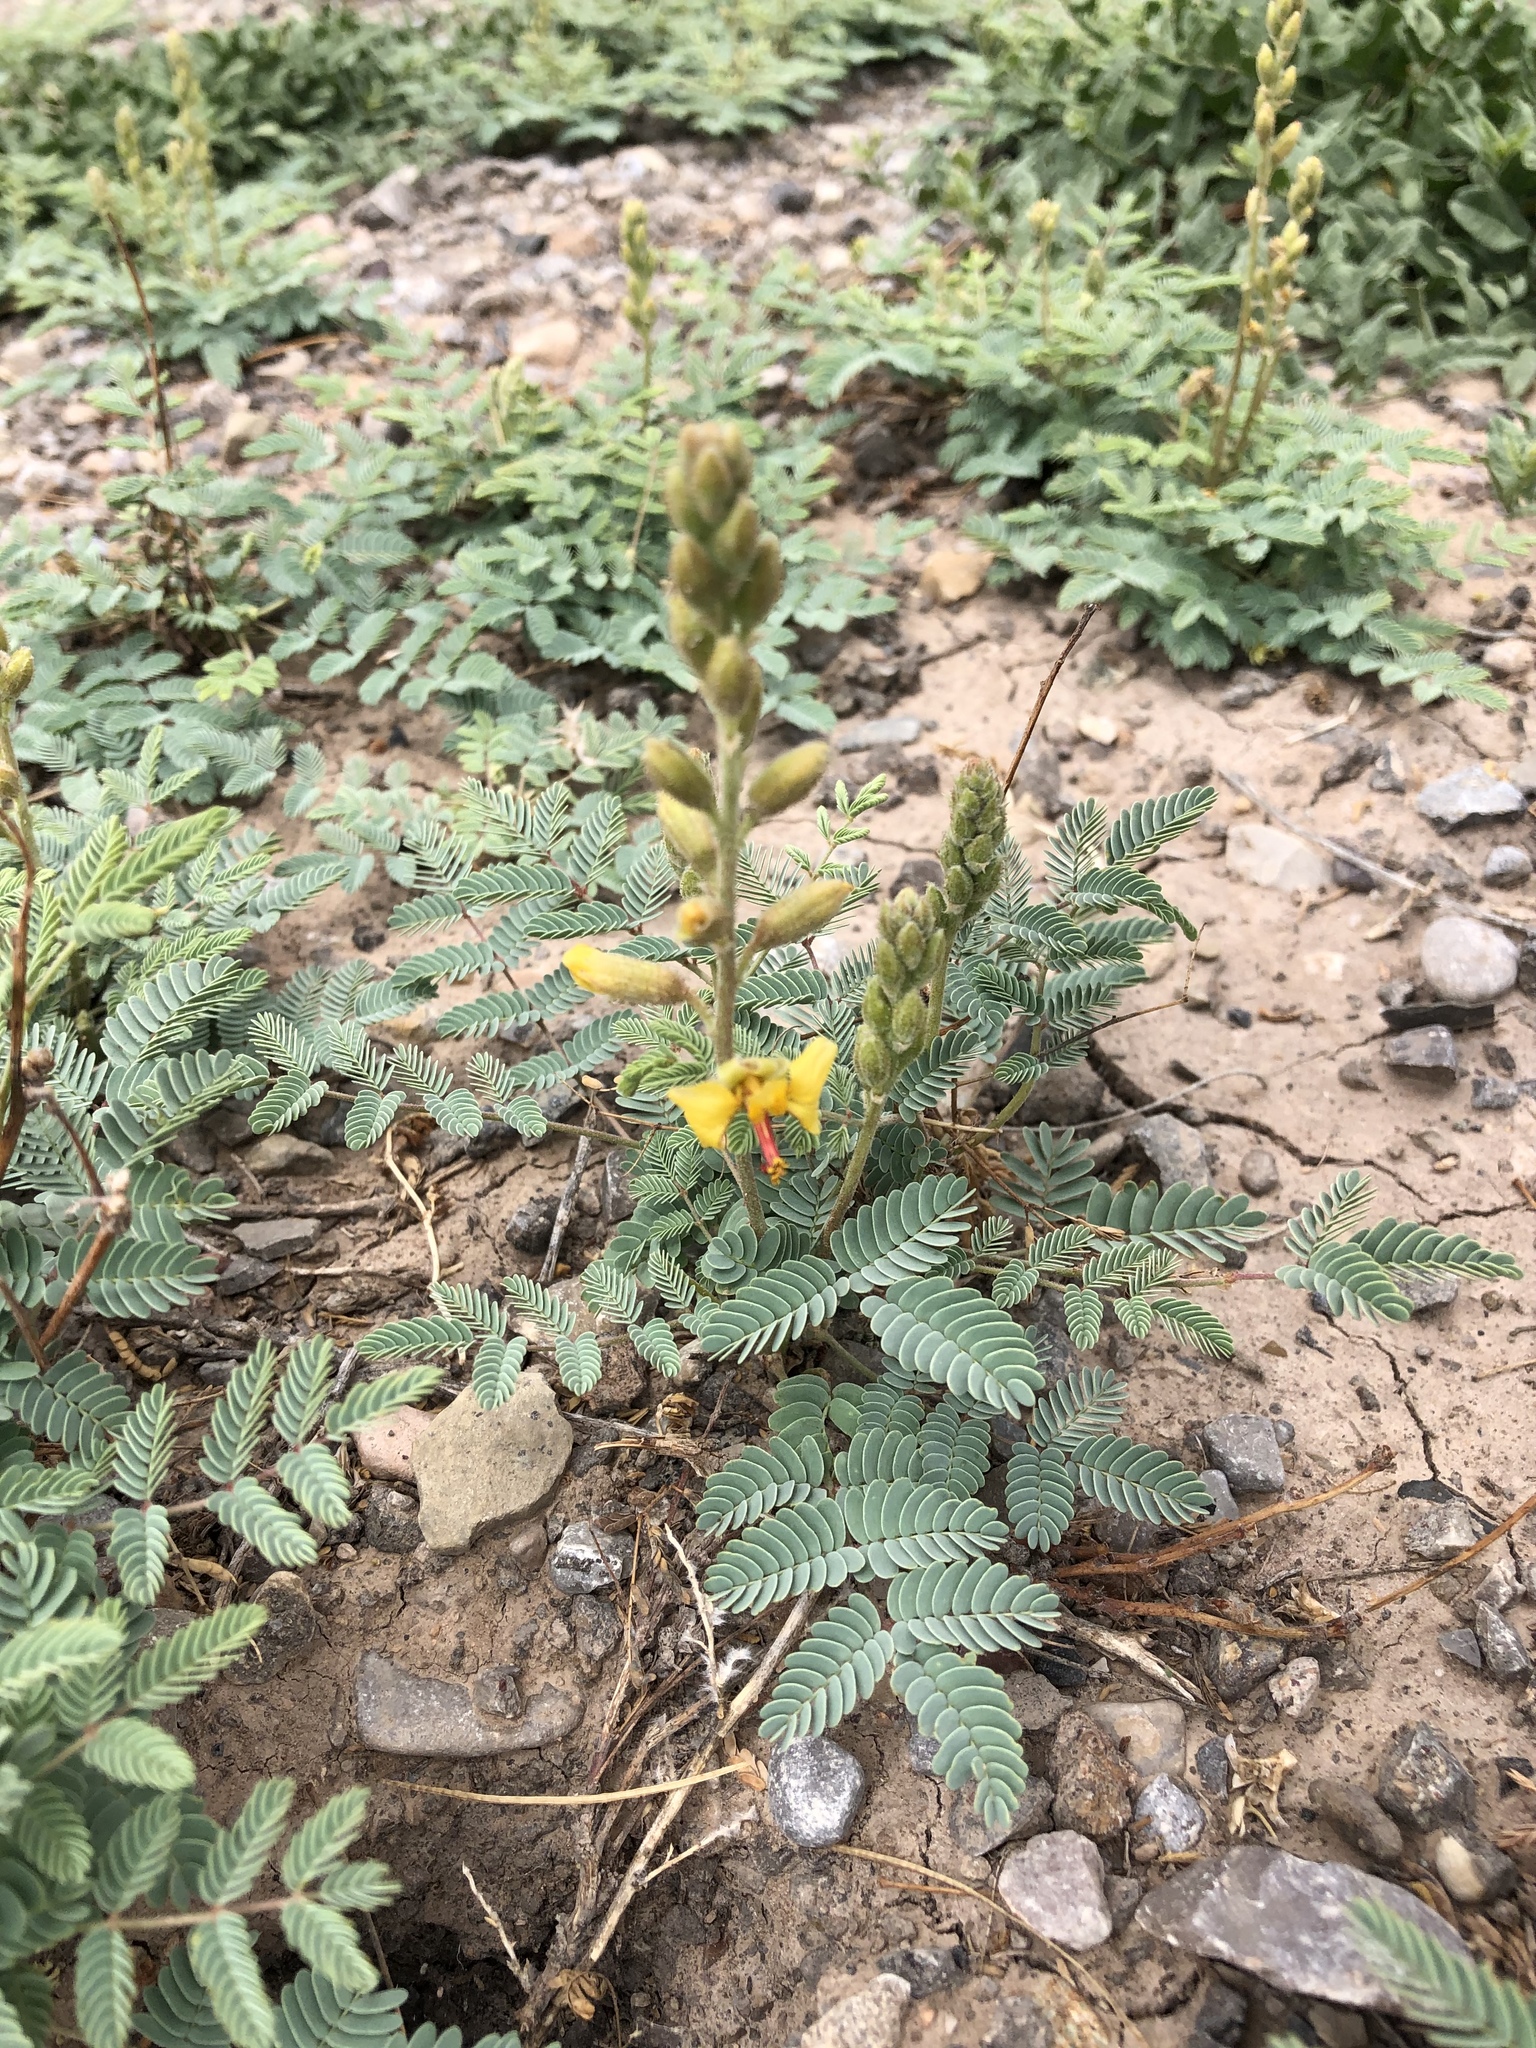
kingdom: Plantae
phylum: Tracheophyta
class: Magnoliopsida
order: Fabales
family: Fabaceae
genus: Hoffmannseggia
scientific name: Hoffmannseggia glauca
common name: Pignut
